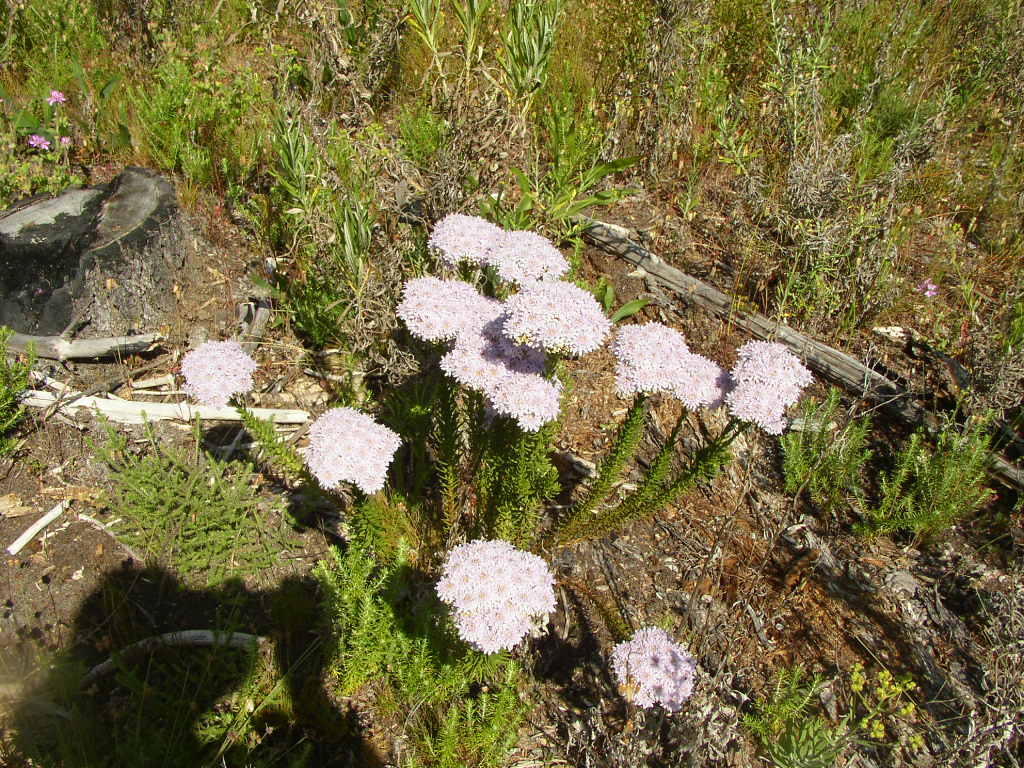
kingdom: Plantae
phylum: Tracheophyta
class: Magnoliopsida
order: Lamiales
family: Scrophulariaceae
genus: Pseudoselago
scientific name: Pseudoselago spuria
